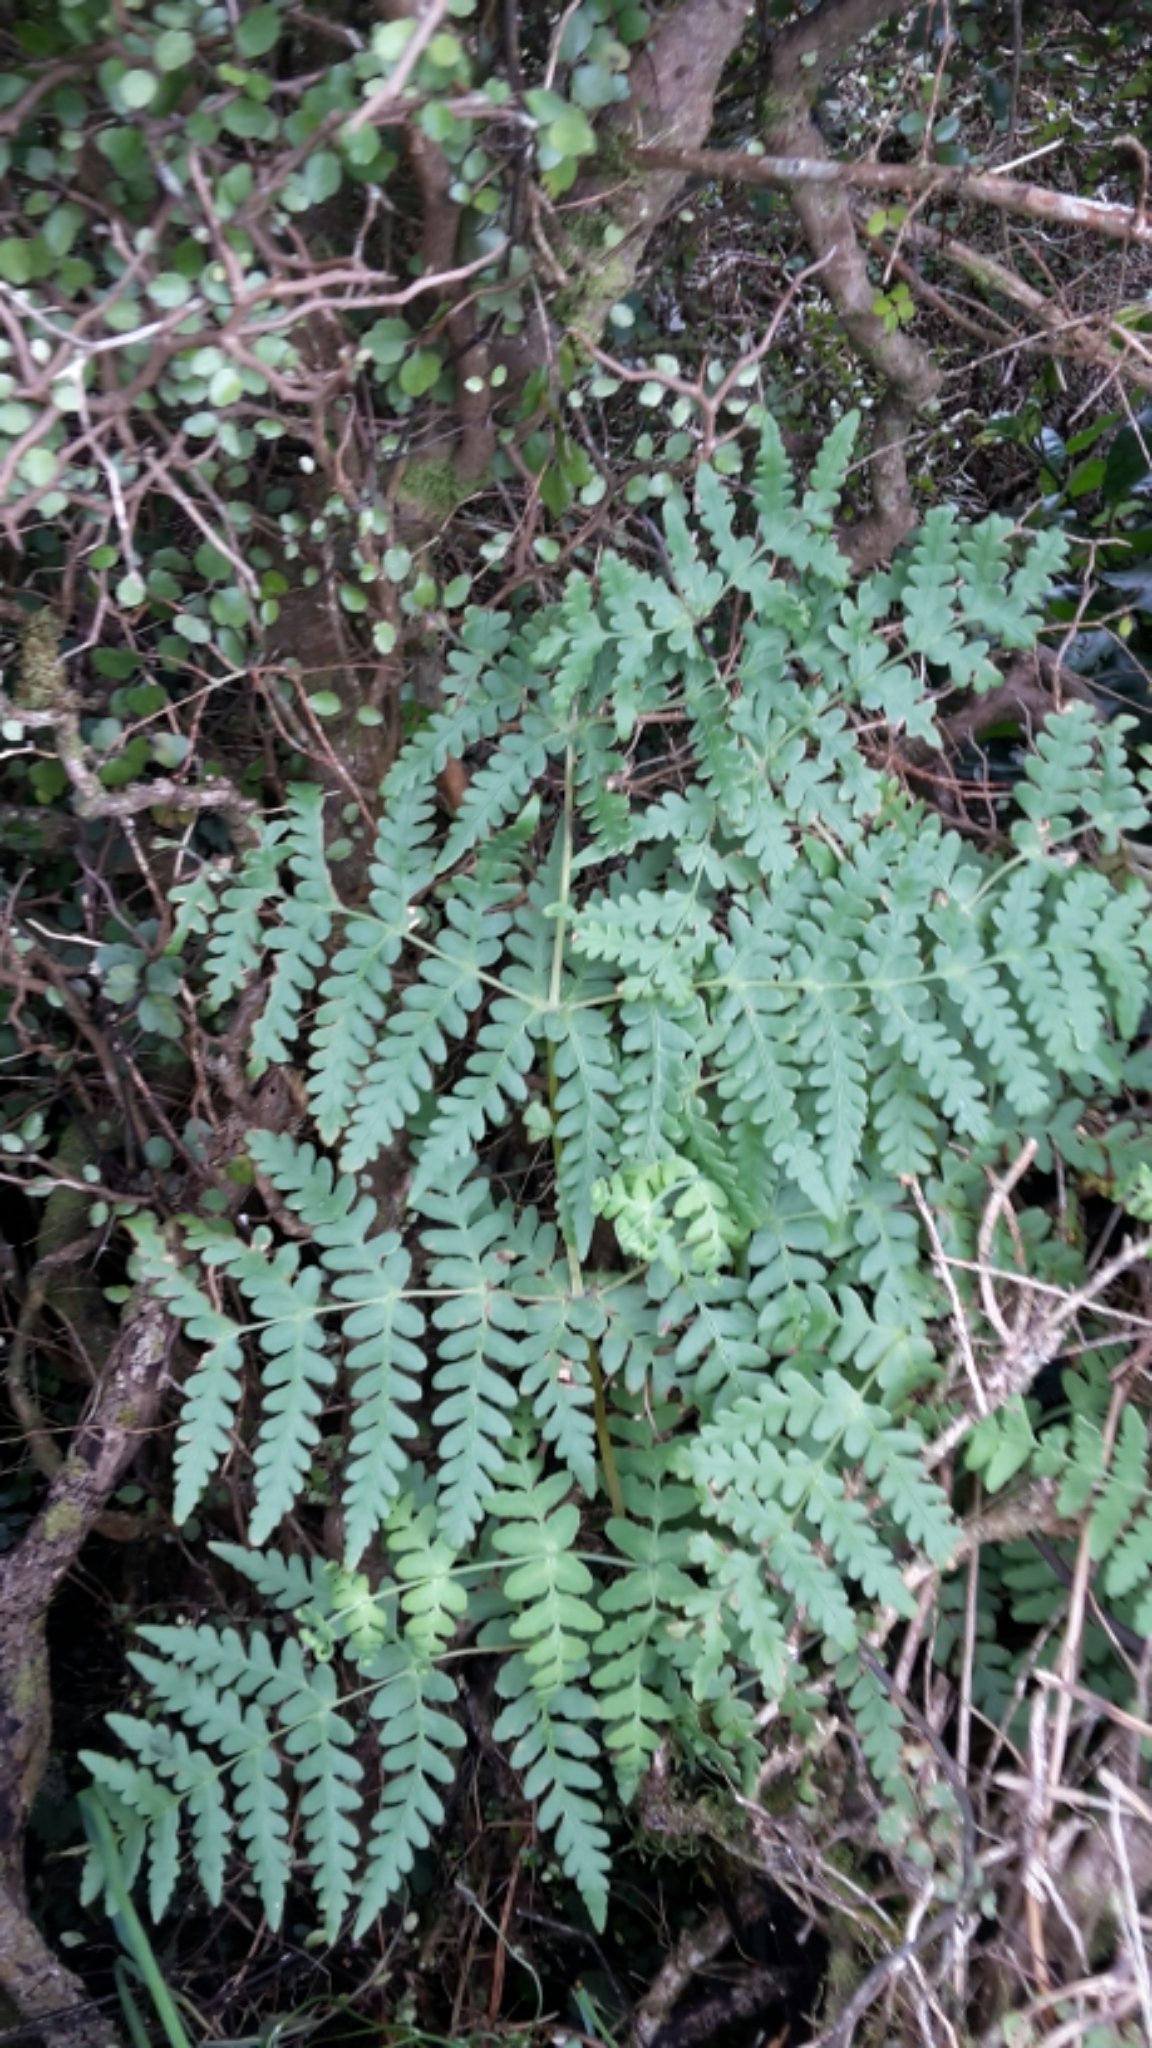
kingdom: Plantae
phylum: Tracheophyta
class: Polypodiopsida
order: Polypodiales
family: Dennstaedtiaceae
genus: Histiopteris
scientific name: Histiopteris incisa
